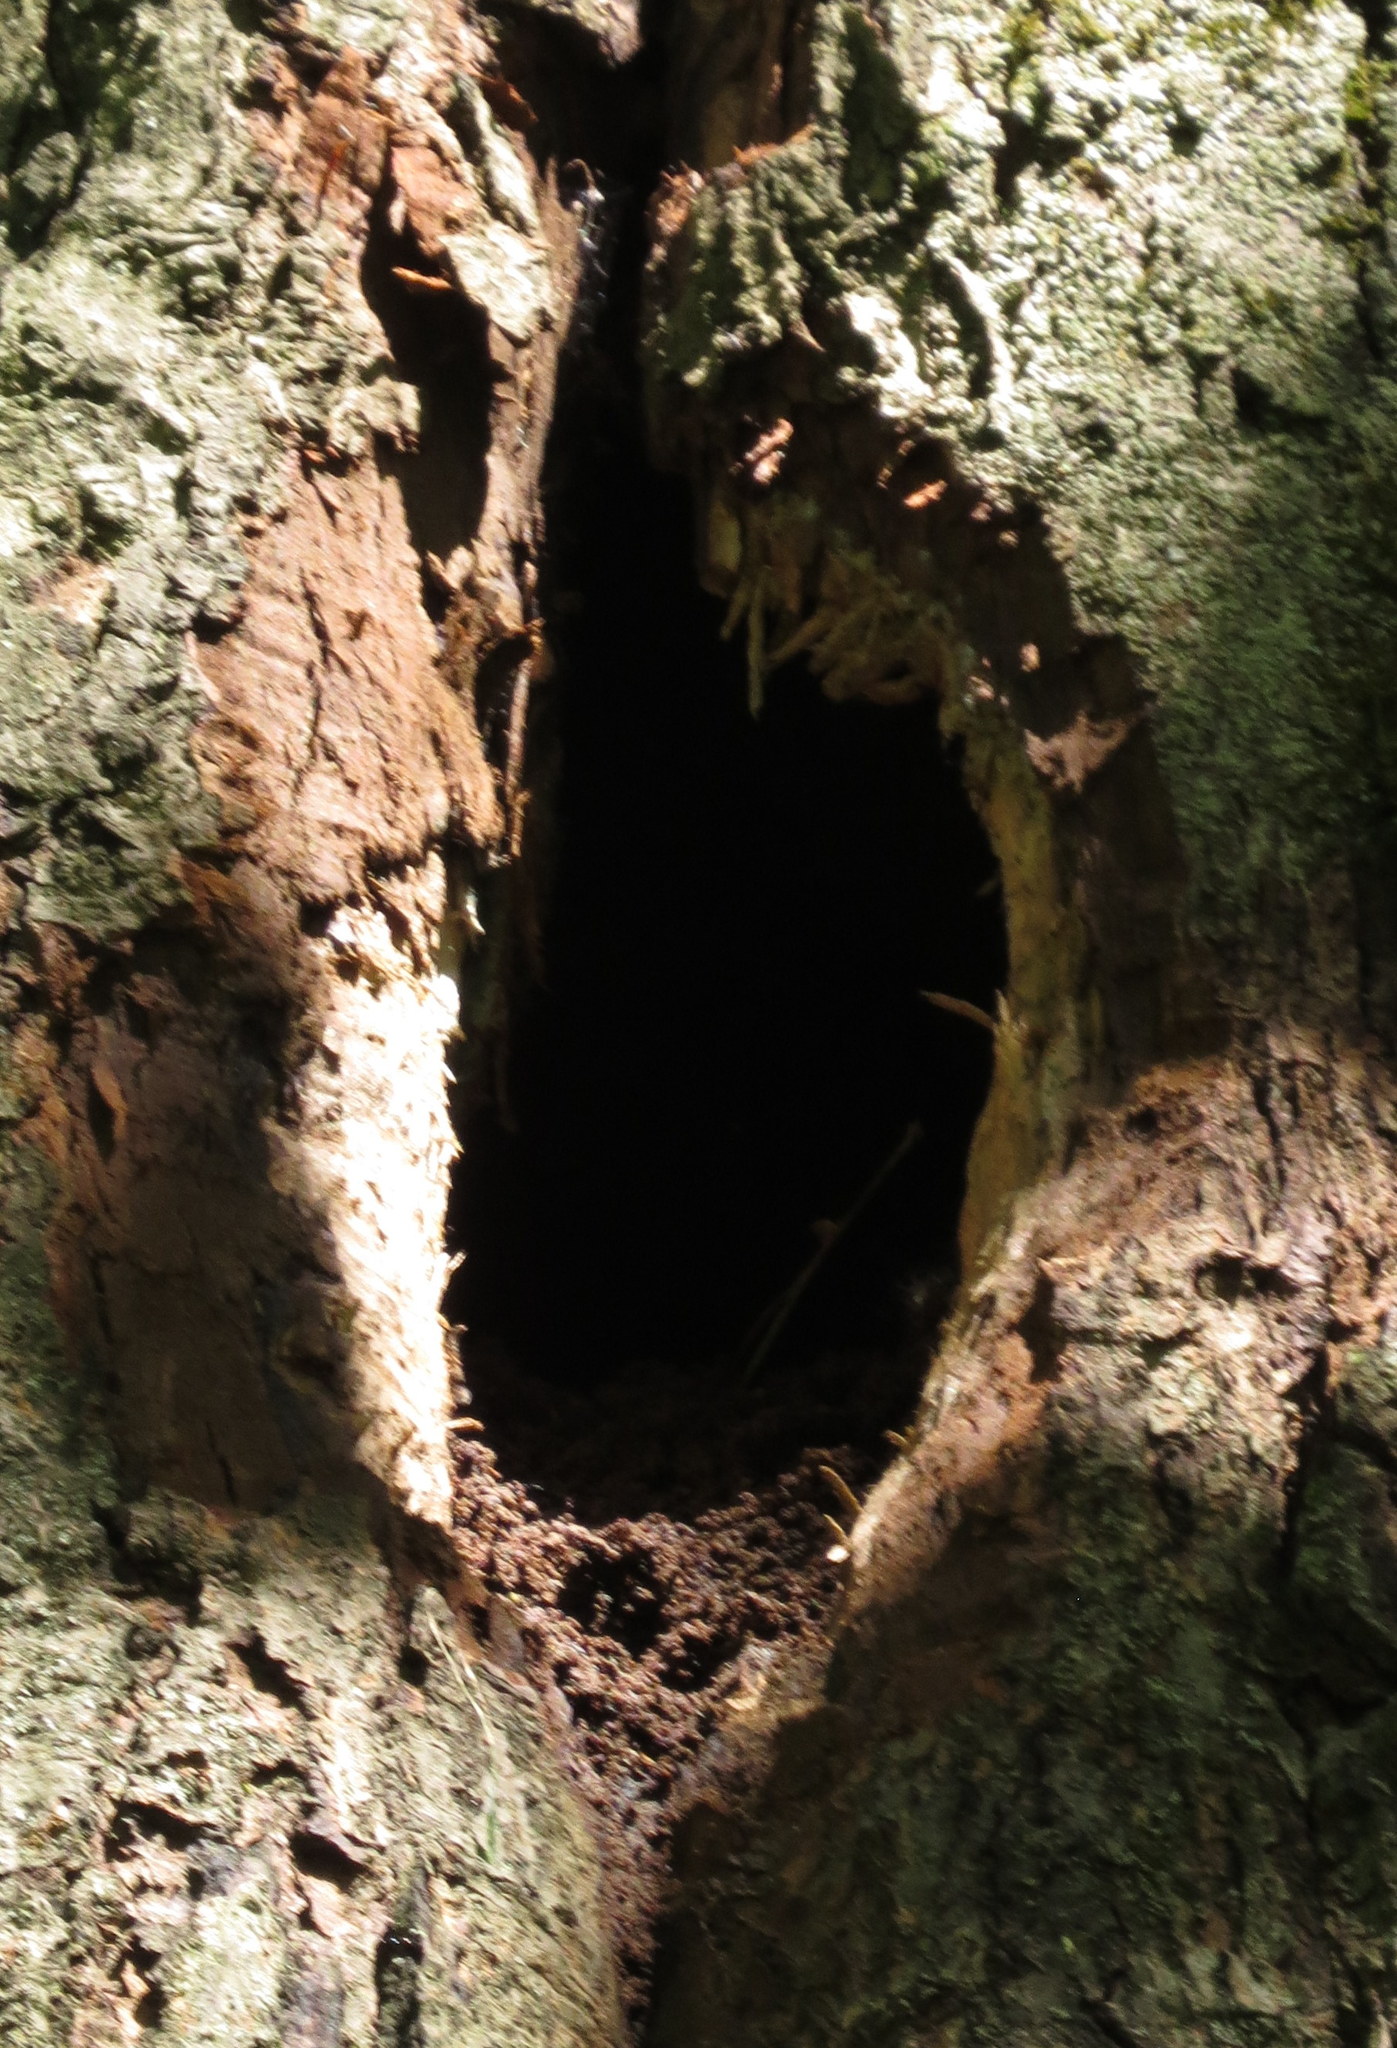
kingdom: Animalia
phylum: Chordata
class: Aves
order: Piciformes
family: Picidae
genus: Dryocopus
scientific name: Dryocopus pileatus
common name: Pileated woodpecker
